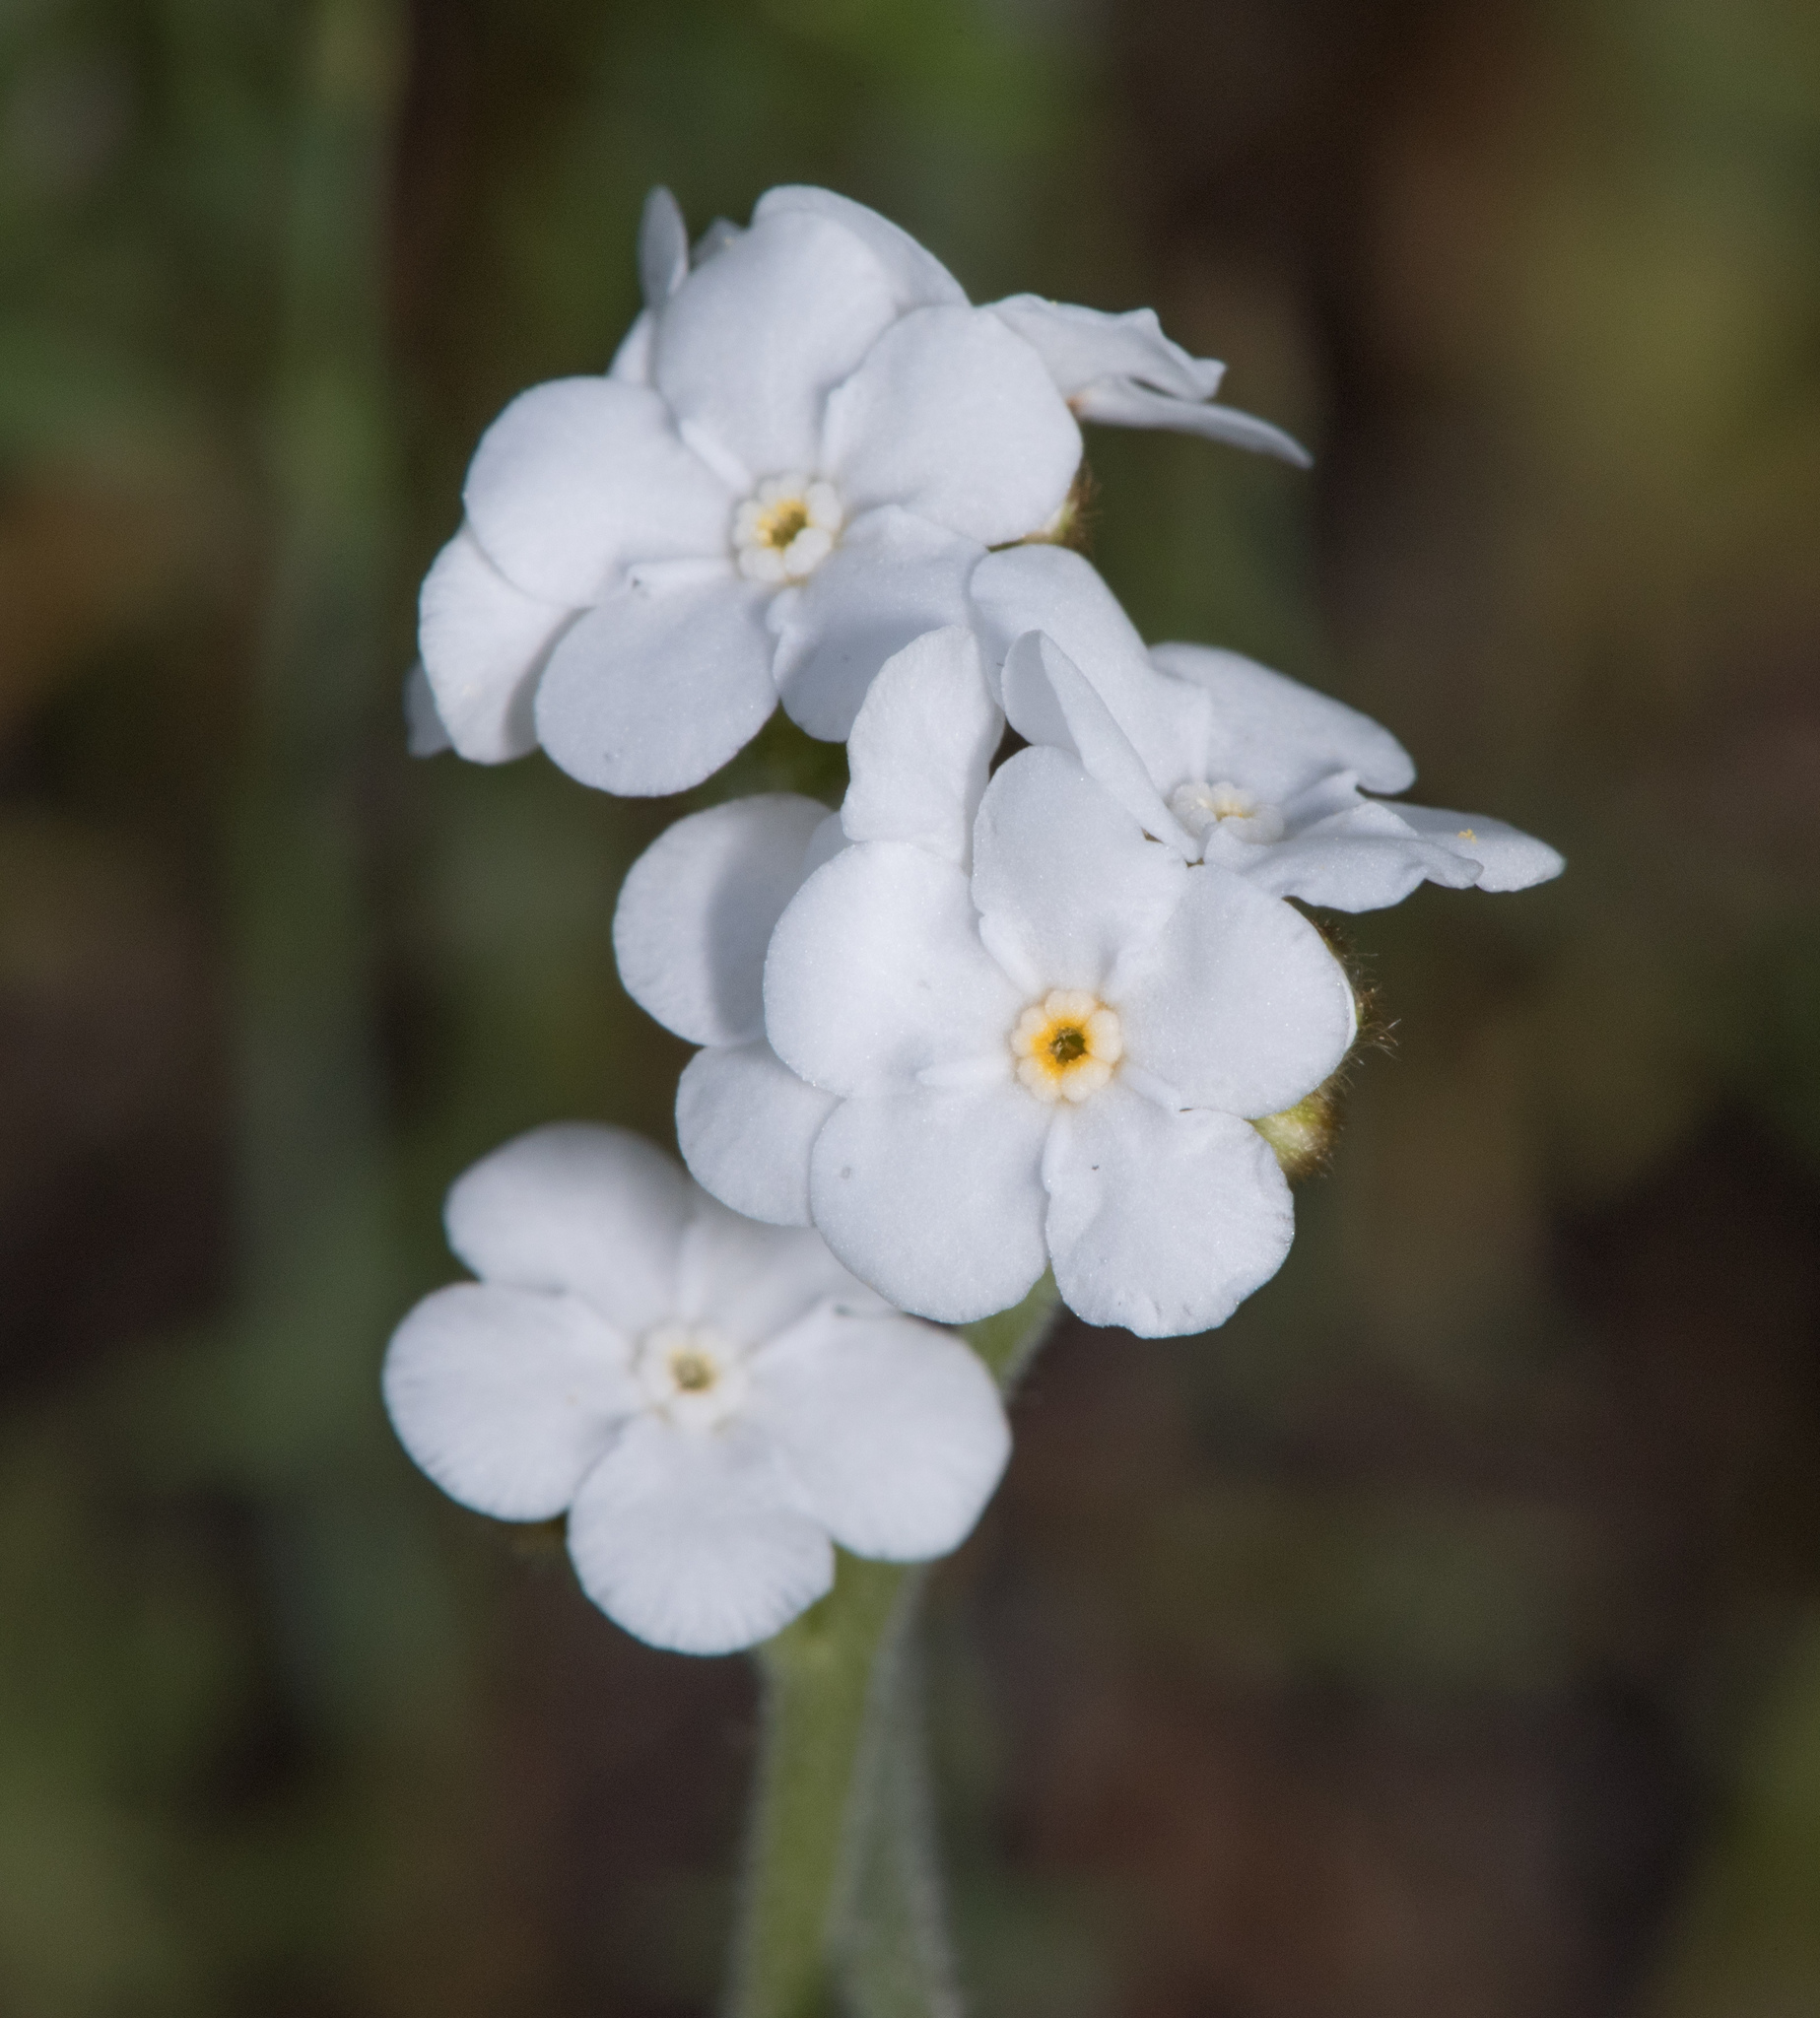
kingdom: Plantae
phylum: Tracheophyta
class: Magnoliopsida
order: Boraginales
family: Boraginaceae
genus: Plagiobothrys
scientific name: Plagiobothrys nothofulvus
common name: Popcorn-flower
